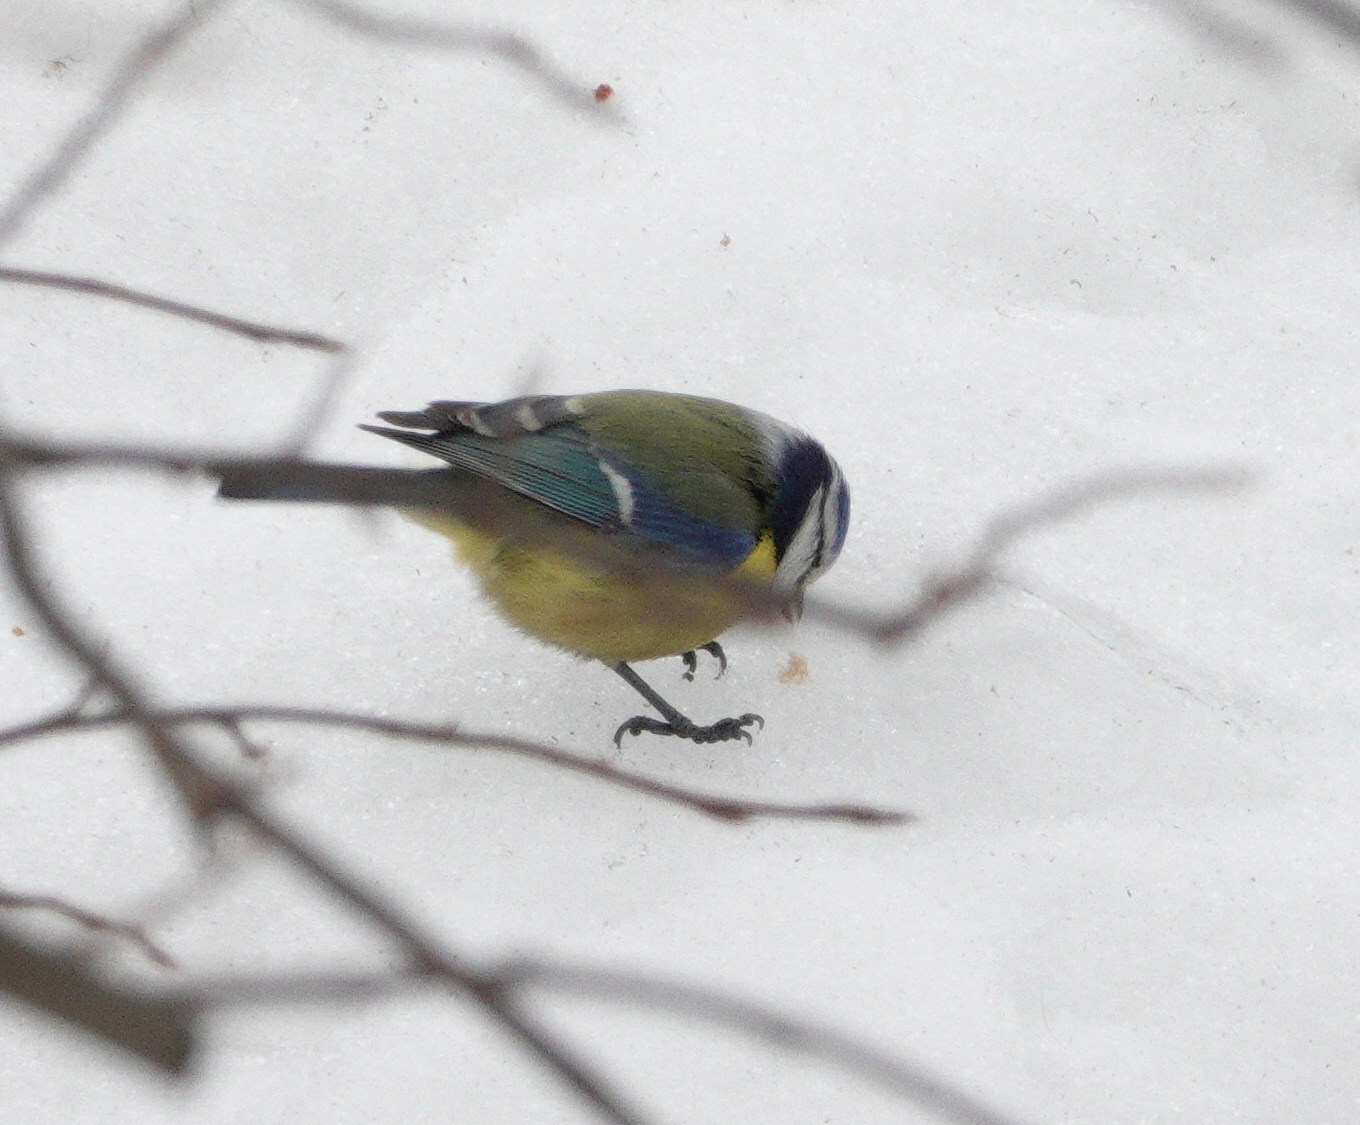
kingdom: Animalia
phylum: Chordata
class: Aves
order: Passeriformes
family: Paridae
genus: Cyanistes
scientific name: Cyanistes caeruleus
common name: Eurasian blue tit
